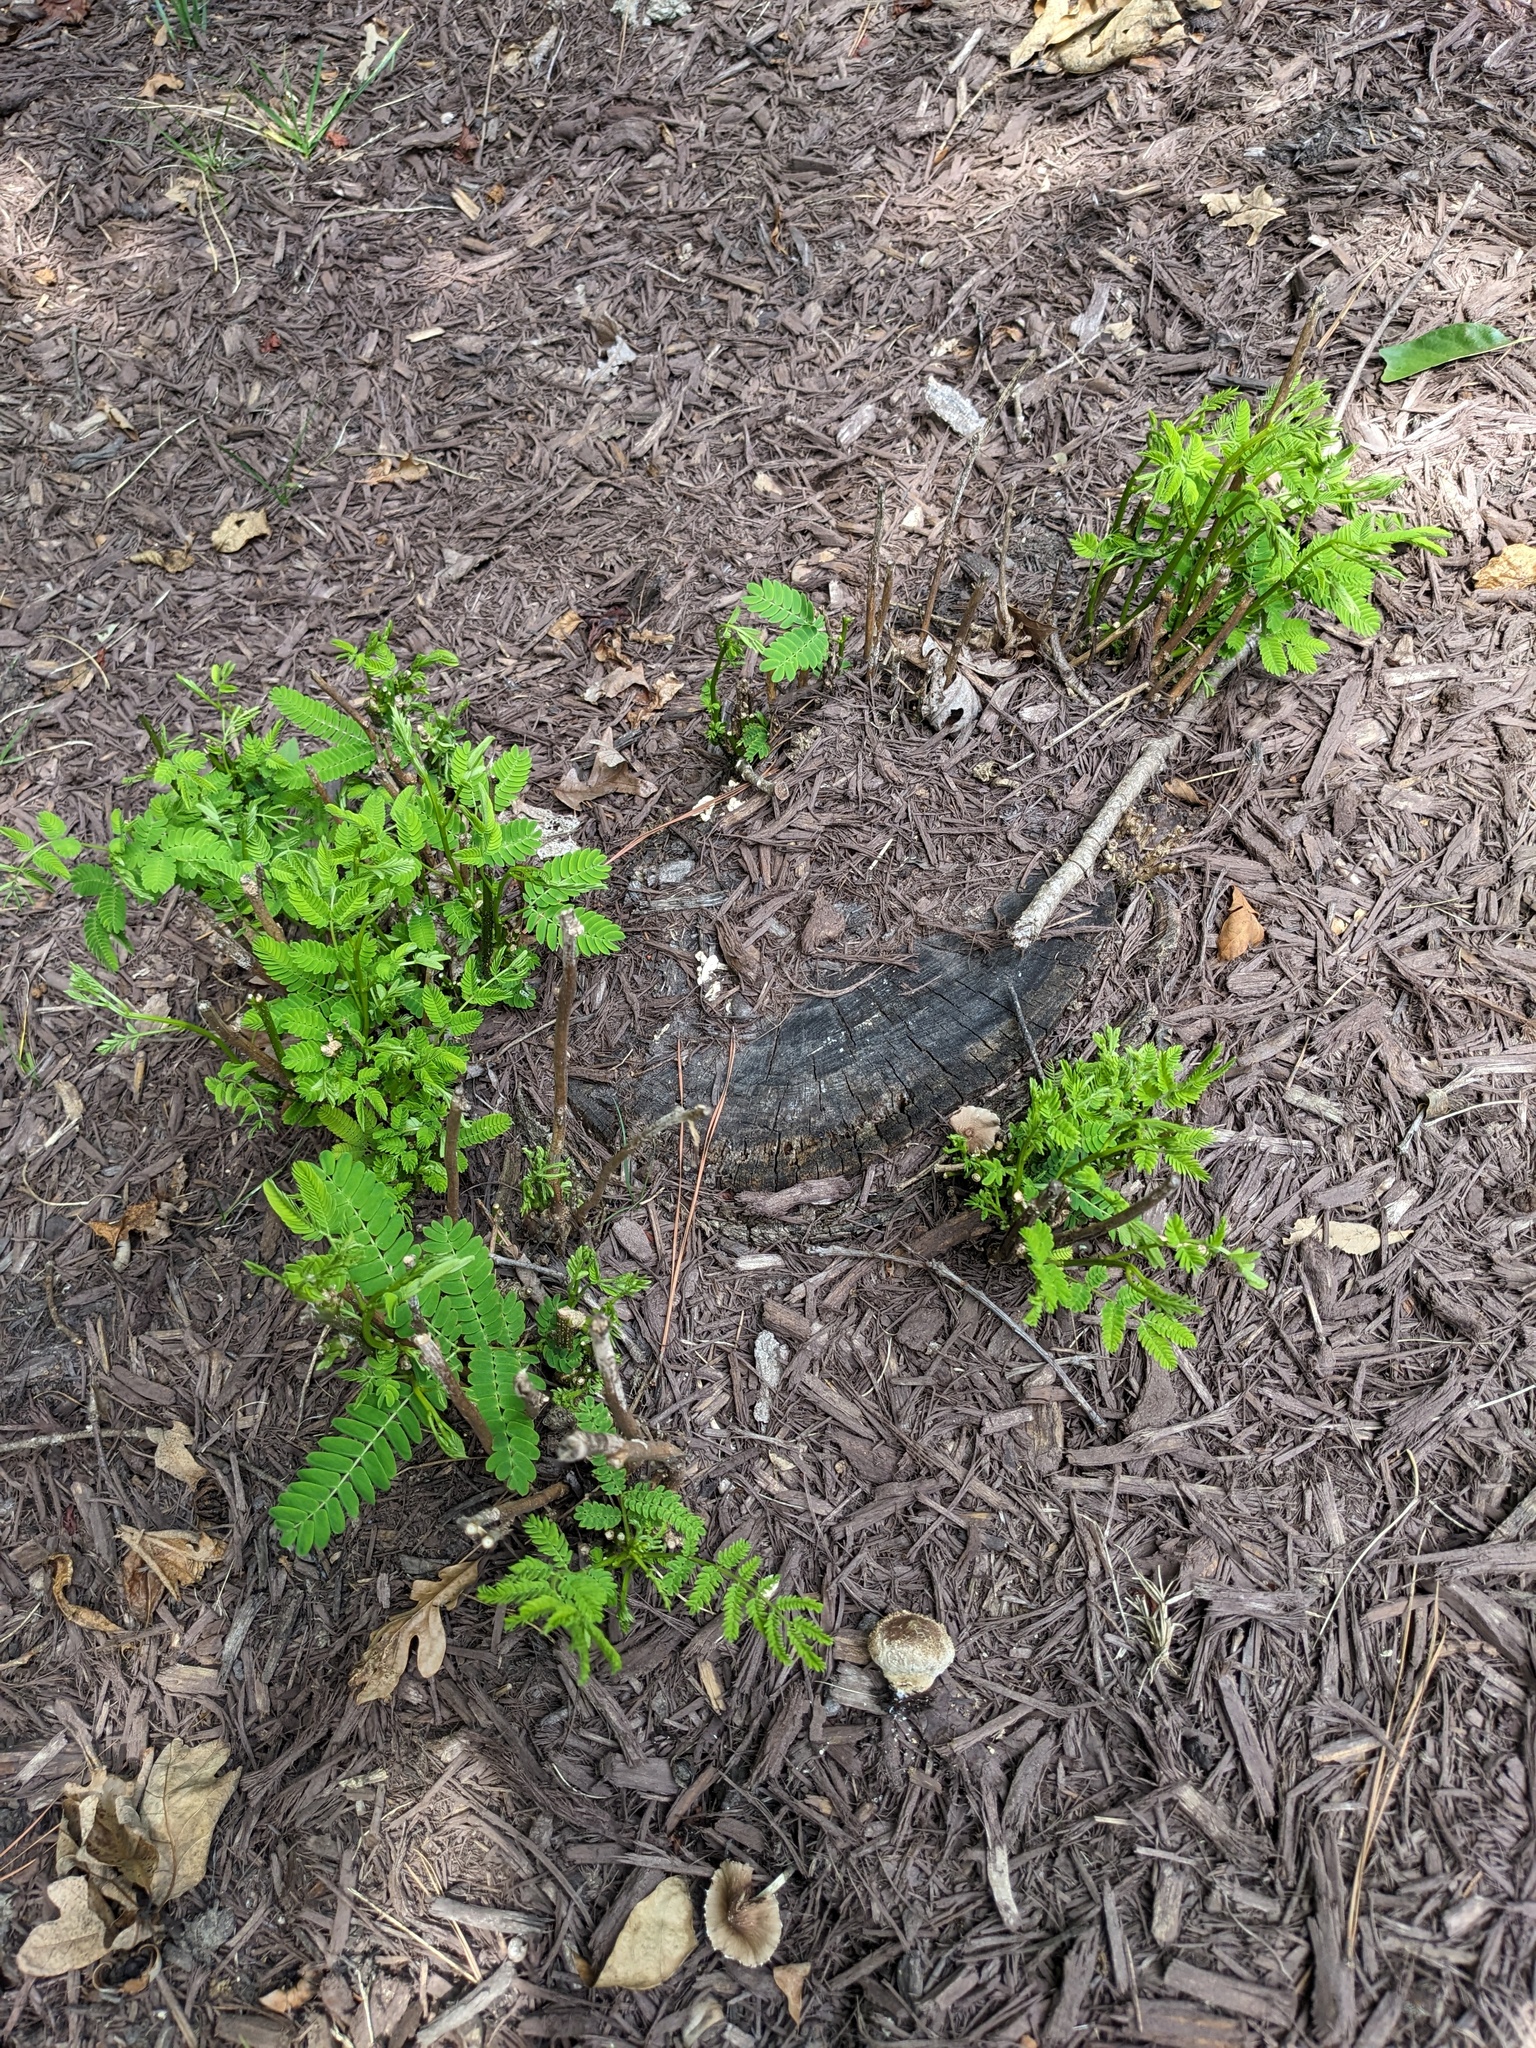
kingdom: Plantae
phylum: Tracheophyta
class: Magnoliopsida
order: Fabales
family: Fabaceae
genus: Albizia
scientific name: Albizia julibrissin
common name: Silktree
